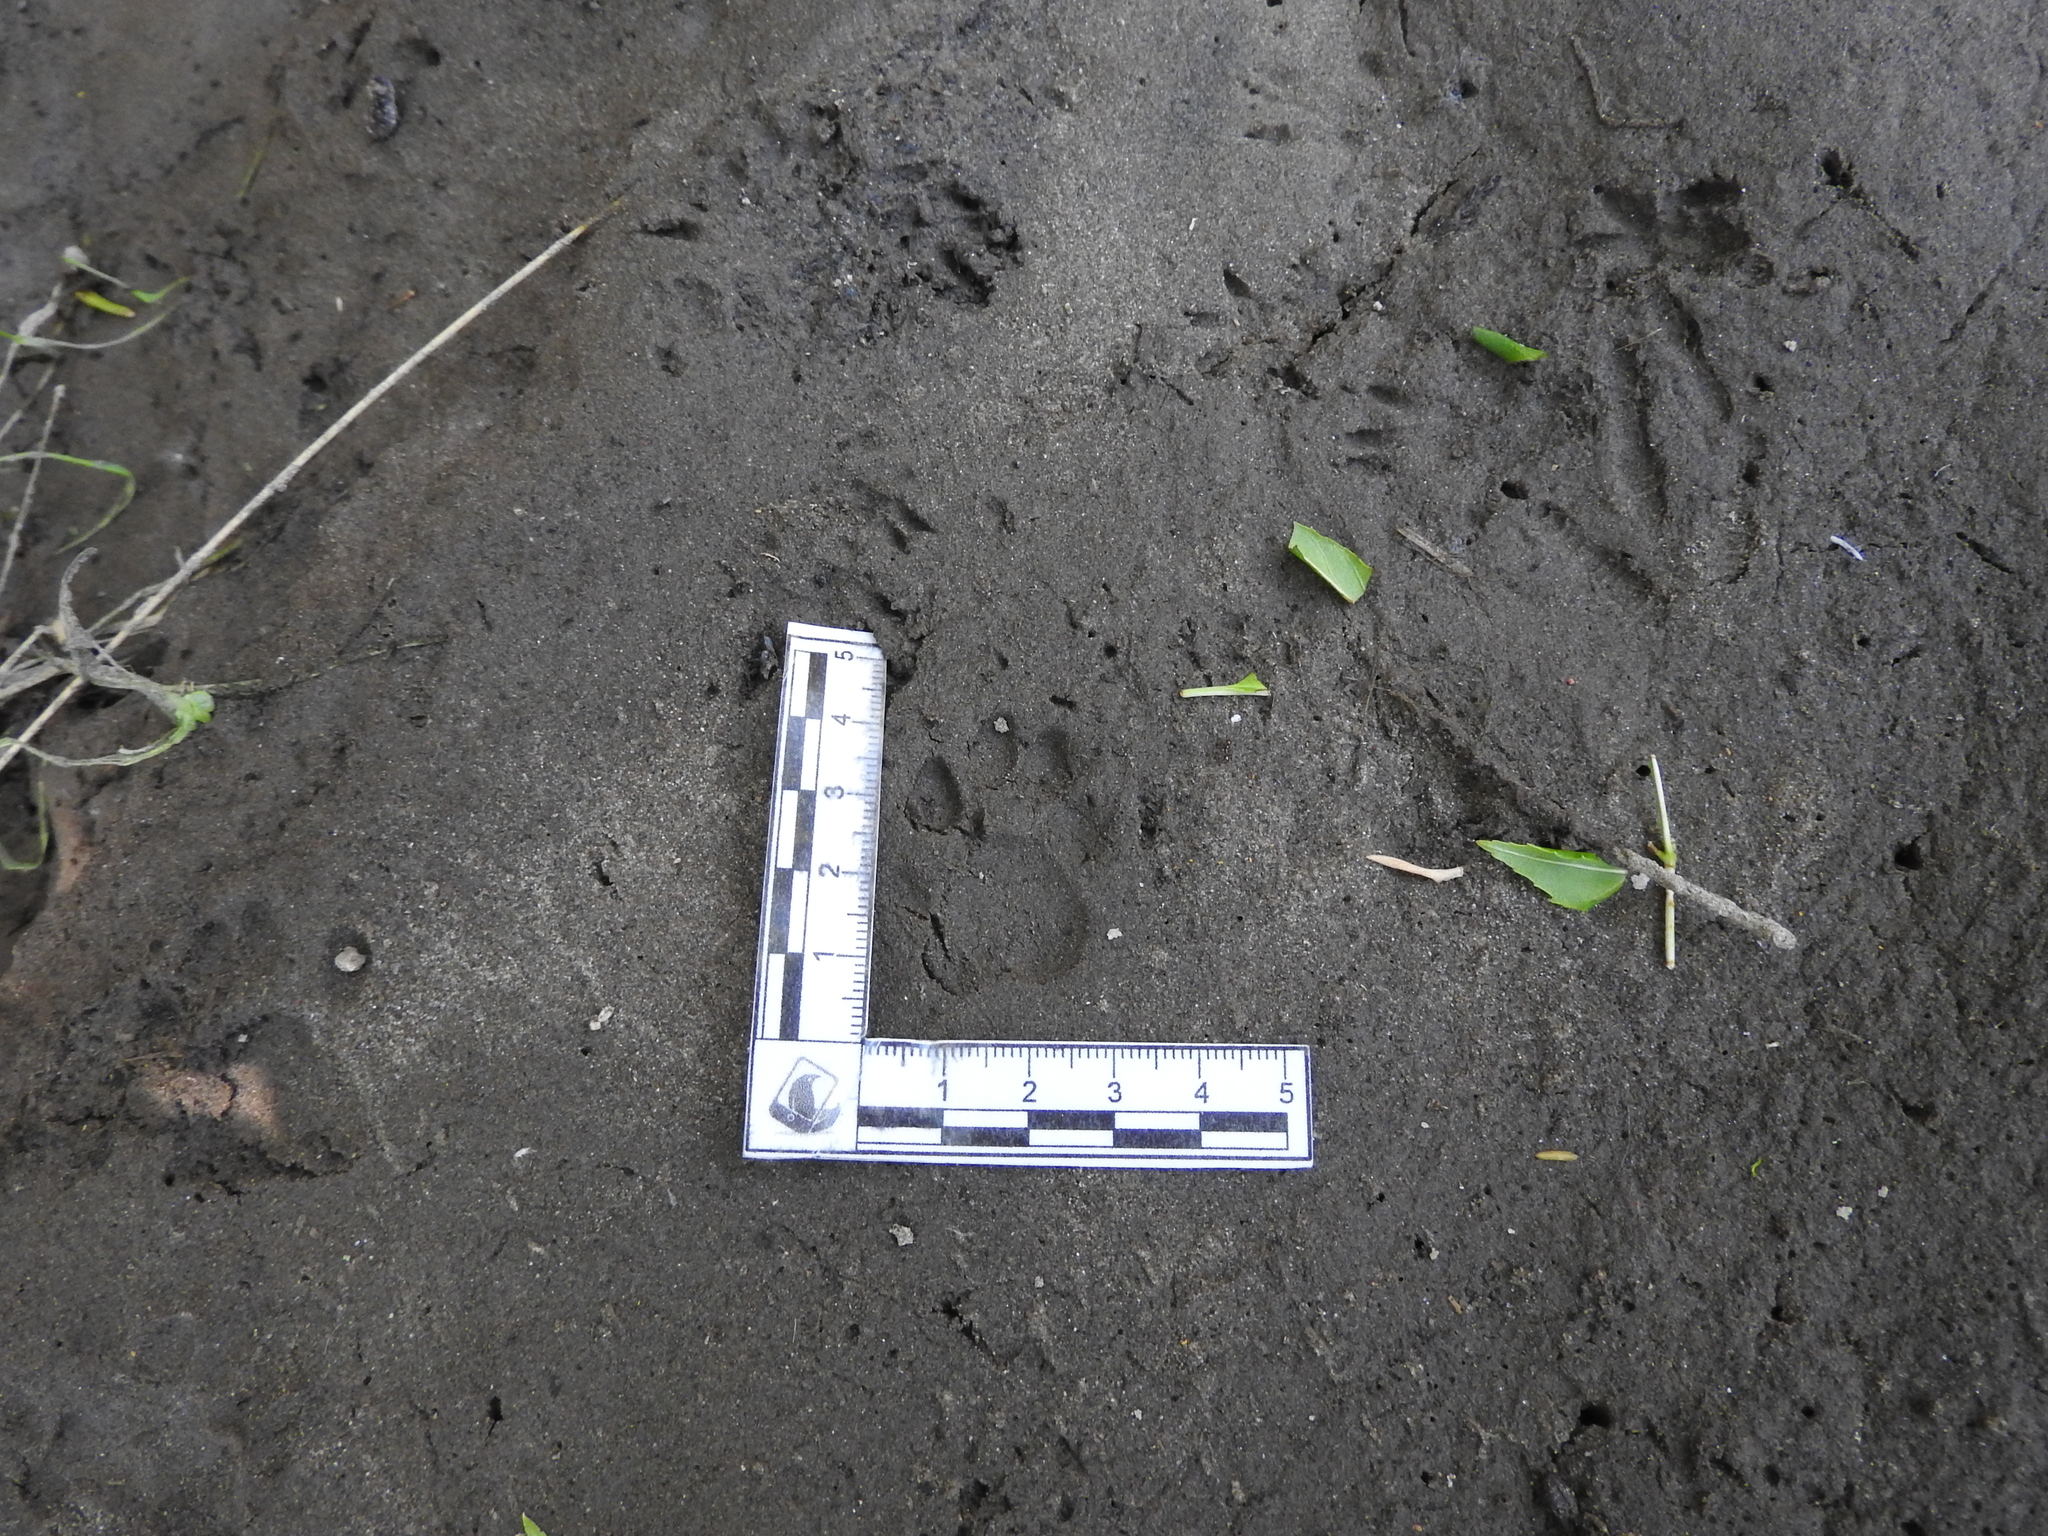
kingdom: Animalia
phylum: Chordata
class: Mammalia
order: Carnivora
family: Procyonidae
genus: Bassariscus
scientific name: Bassariscus astutus
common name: Ringtail
